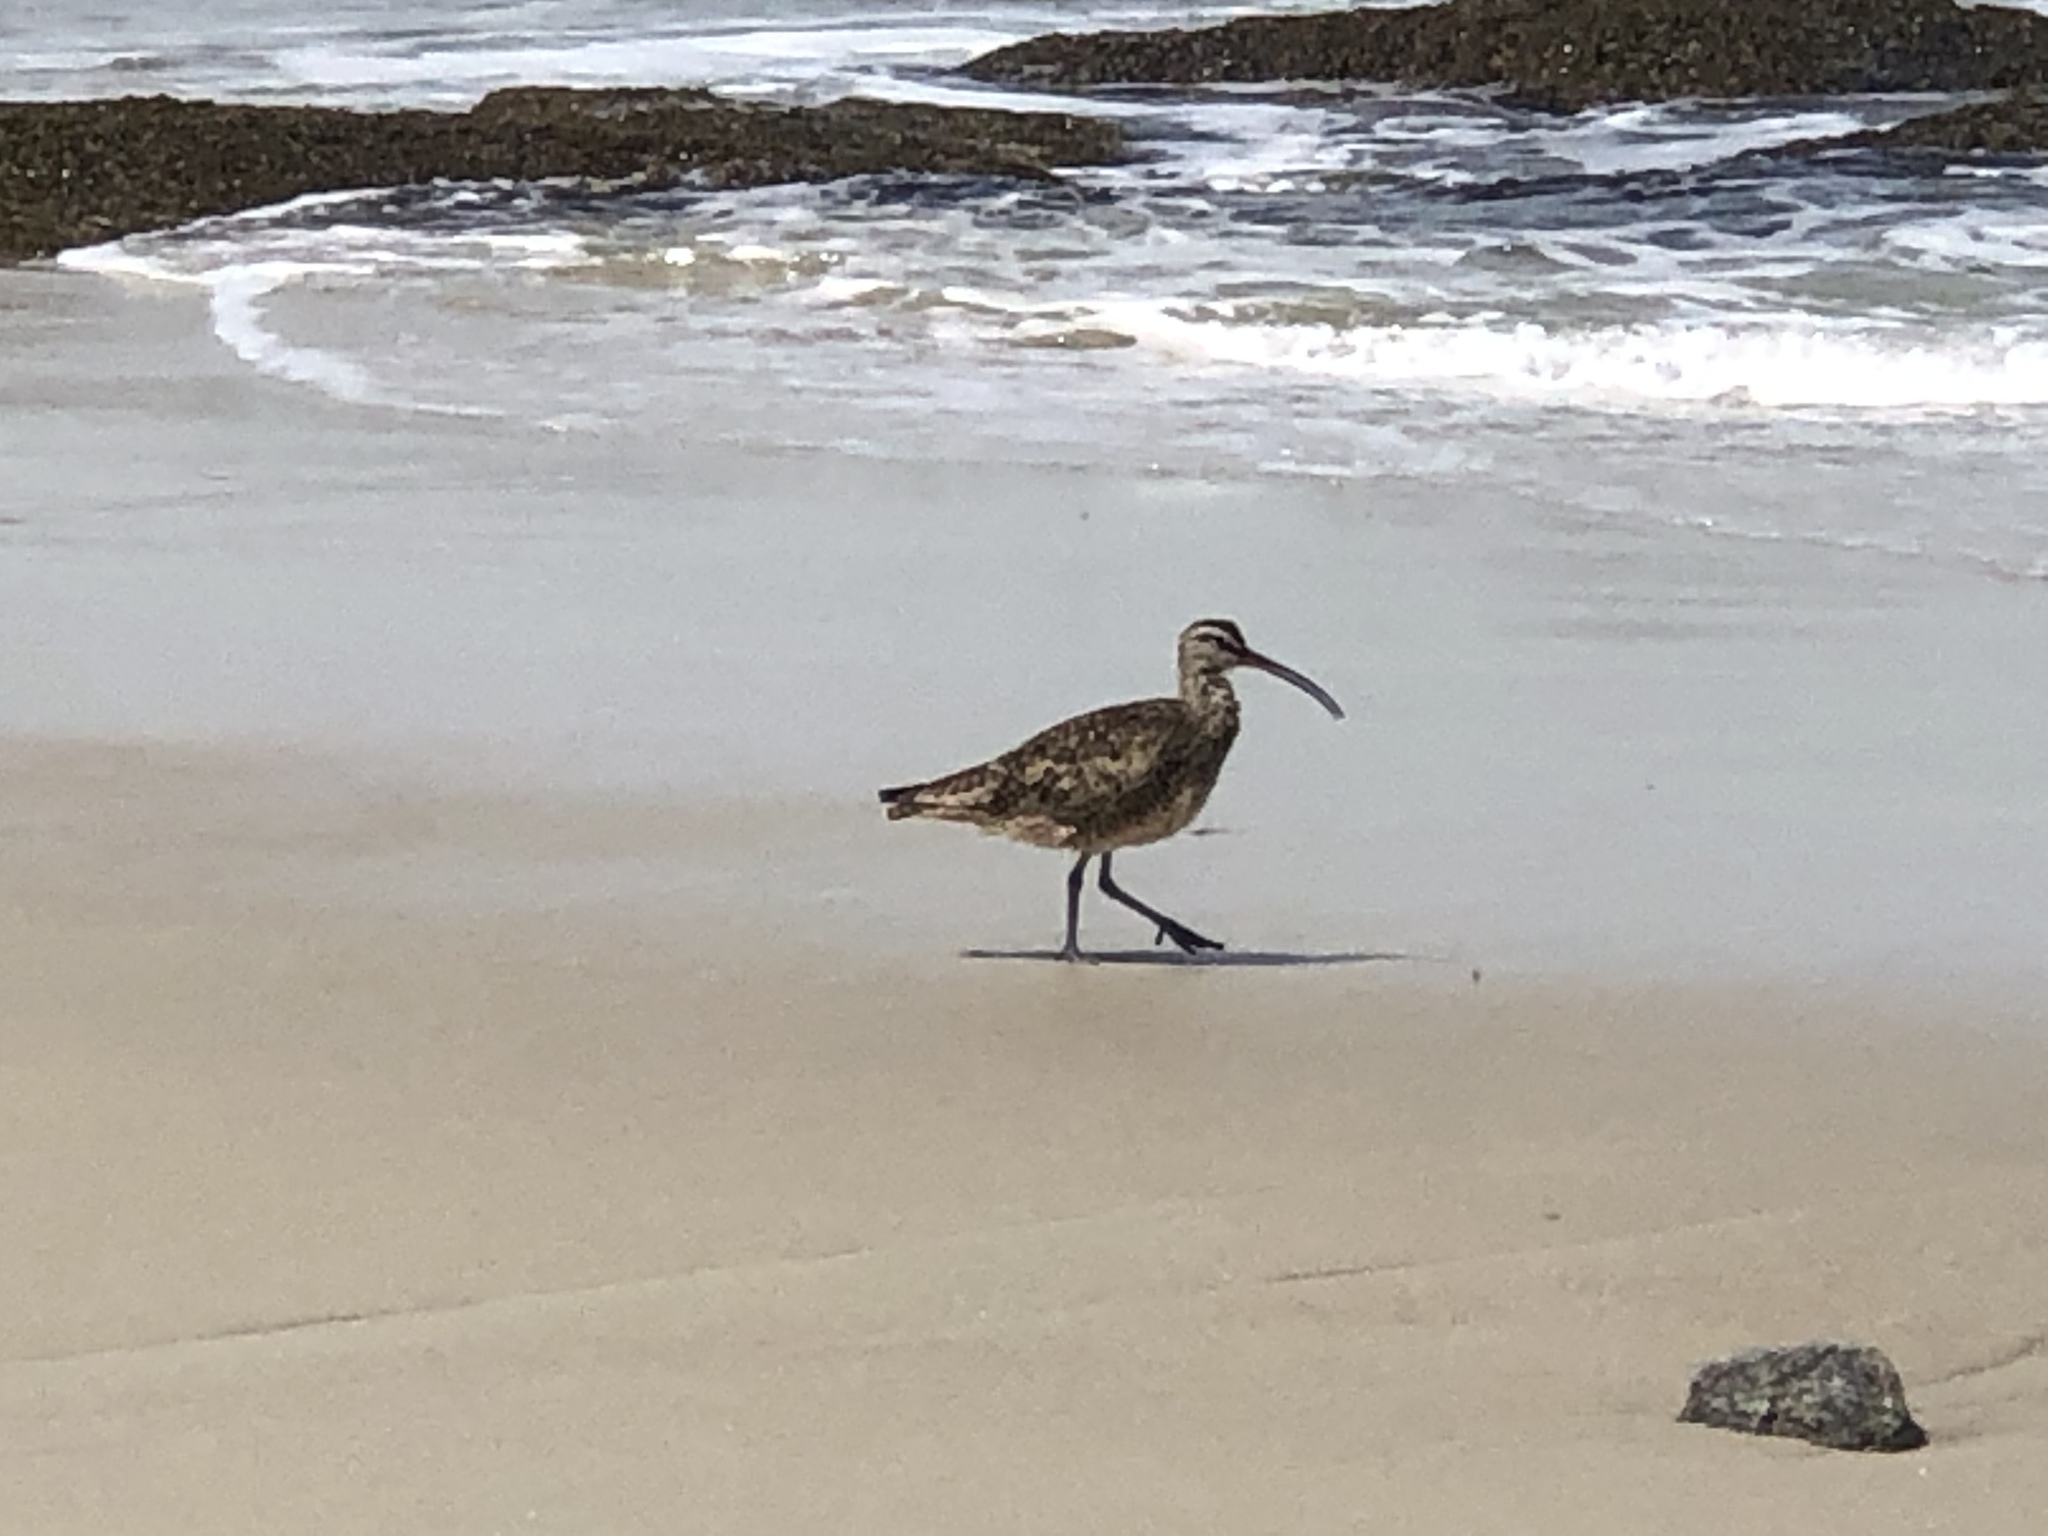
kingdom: Animalia
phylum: Chordata
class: Aves
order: Charadriiformes
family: Scolopacidae
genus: Numenius
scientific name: Numenius phaeopus
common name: Whimbrel
